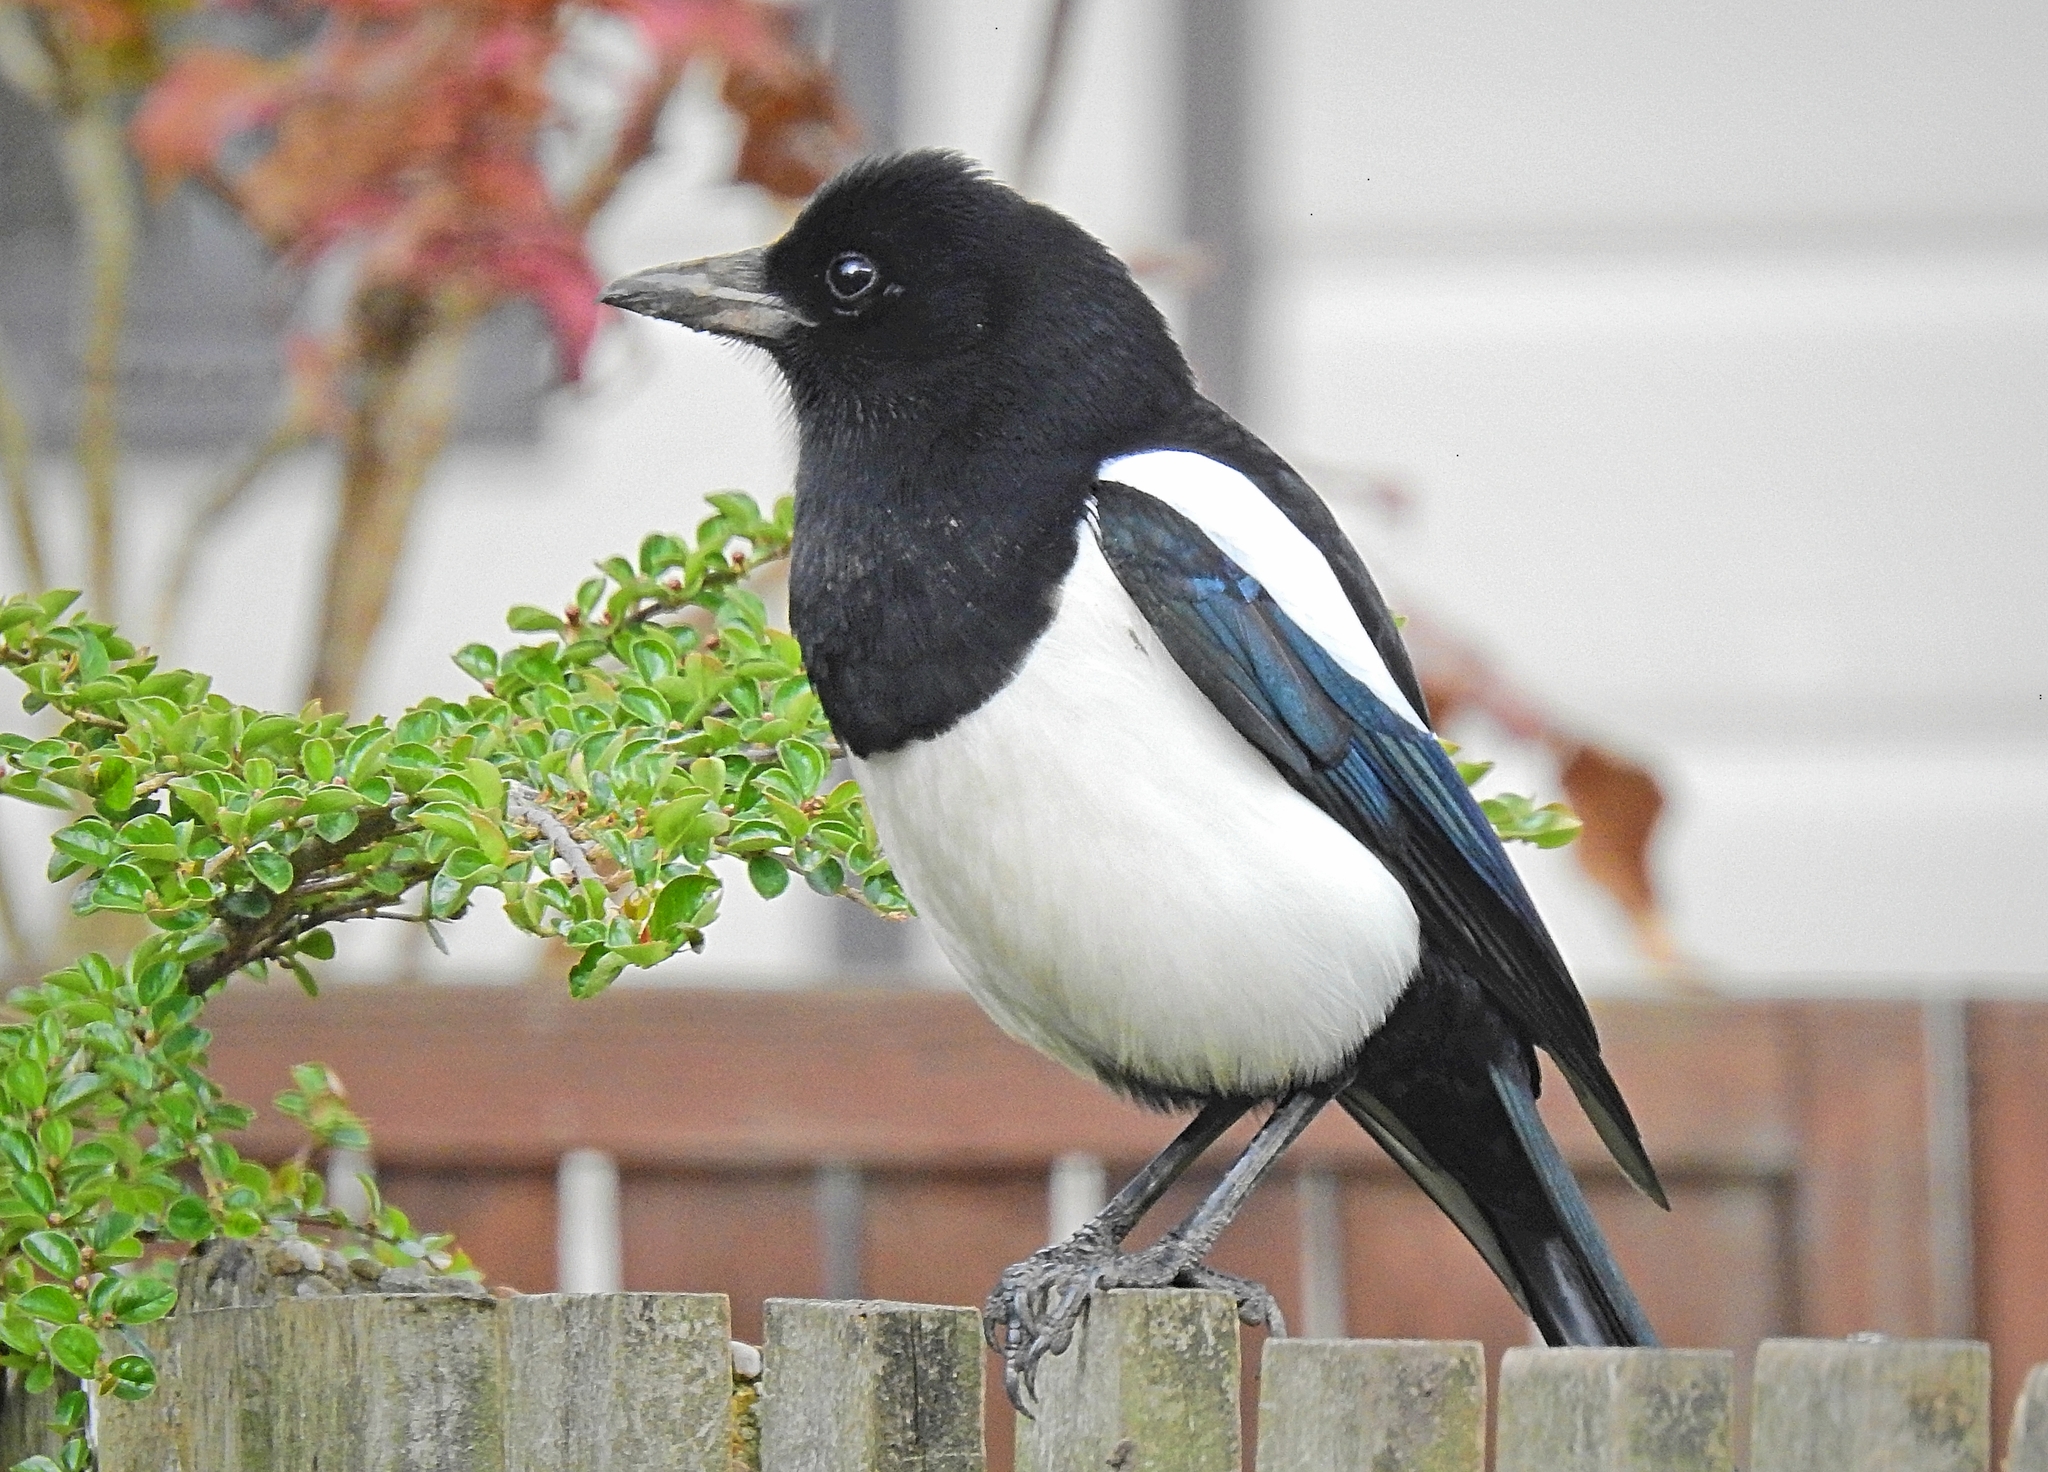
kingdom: Animalia
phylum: Chordata
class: Aves
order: Passeriformes
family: Corvidae
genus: Pica
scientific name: Pica pica
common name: Eurasian magpie
